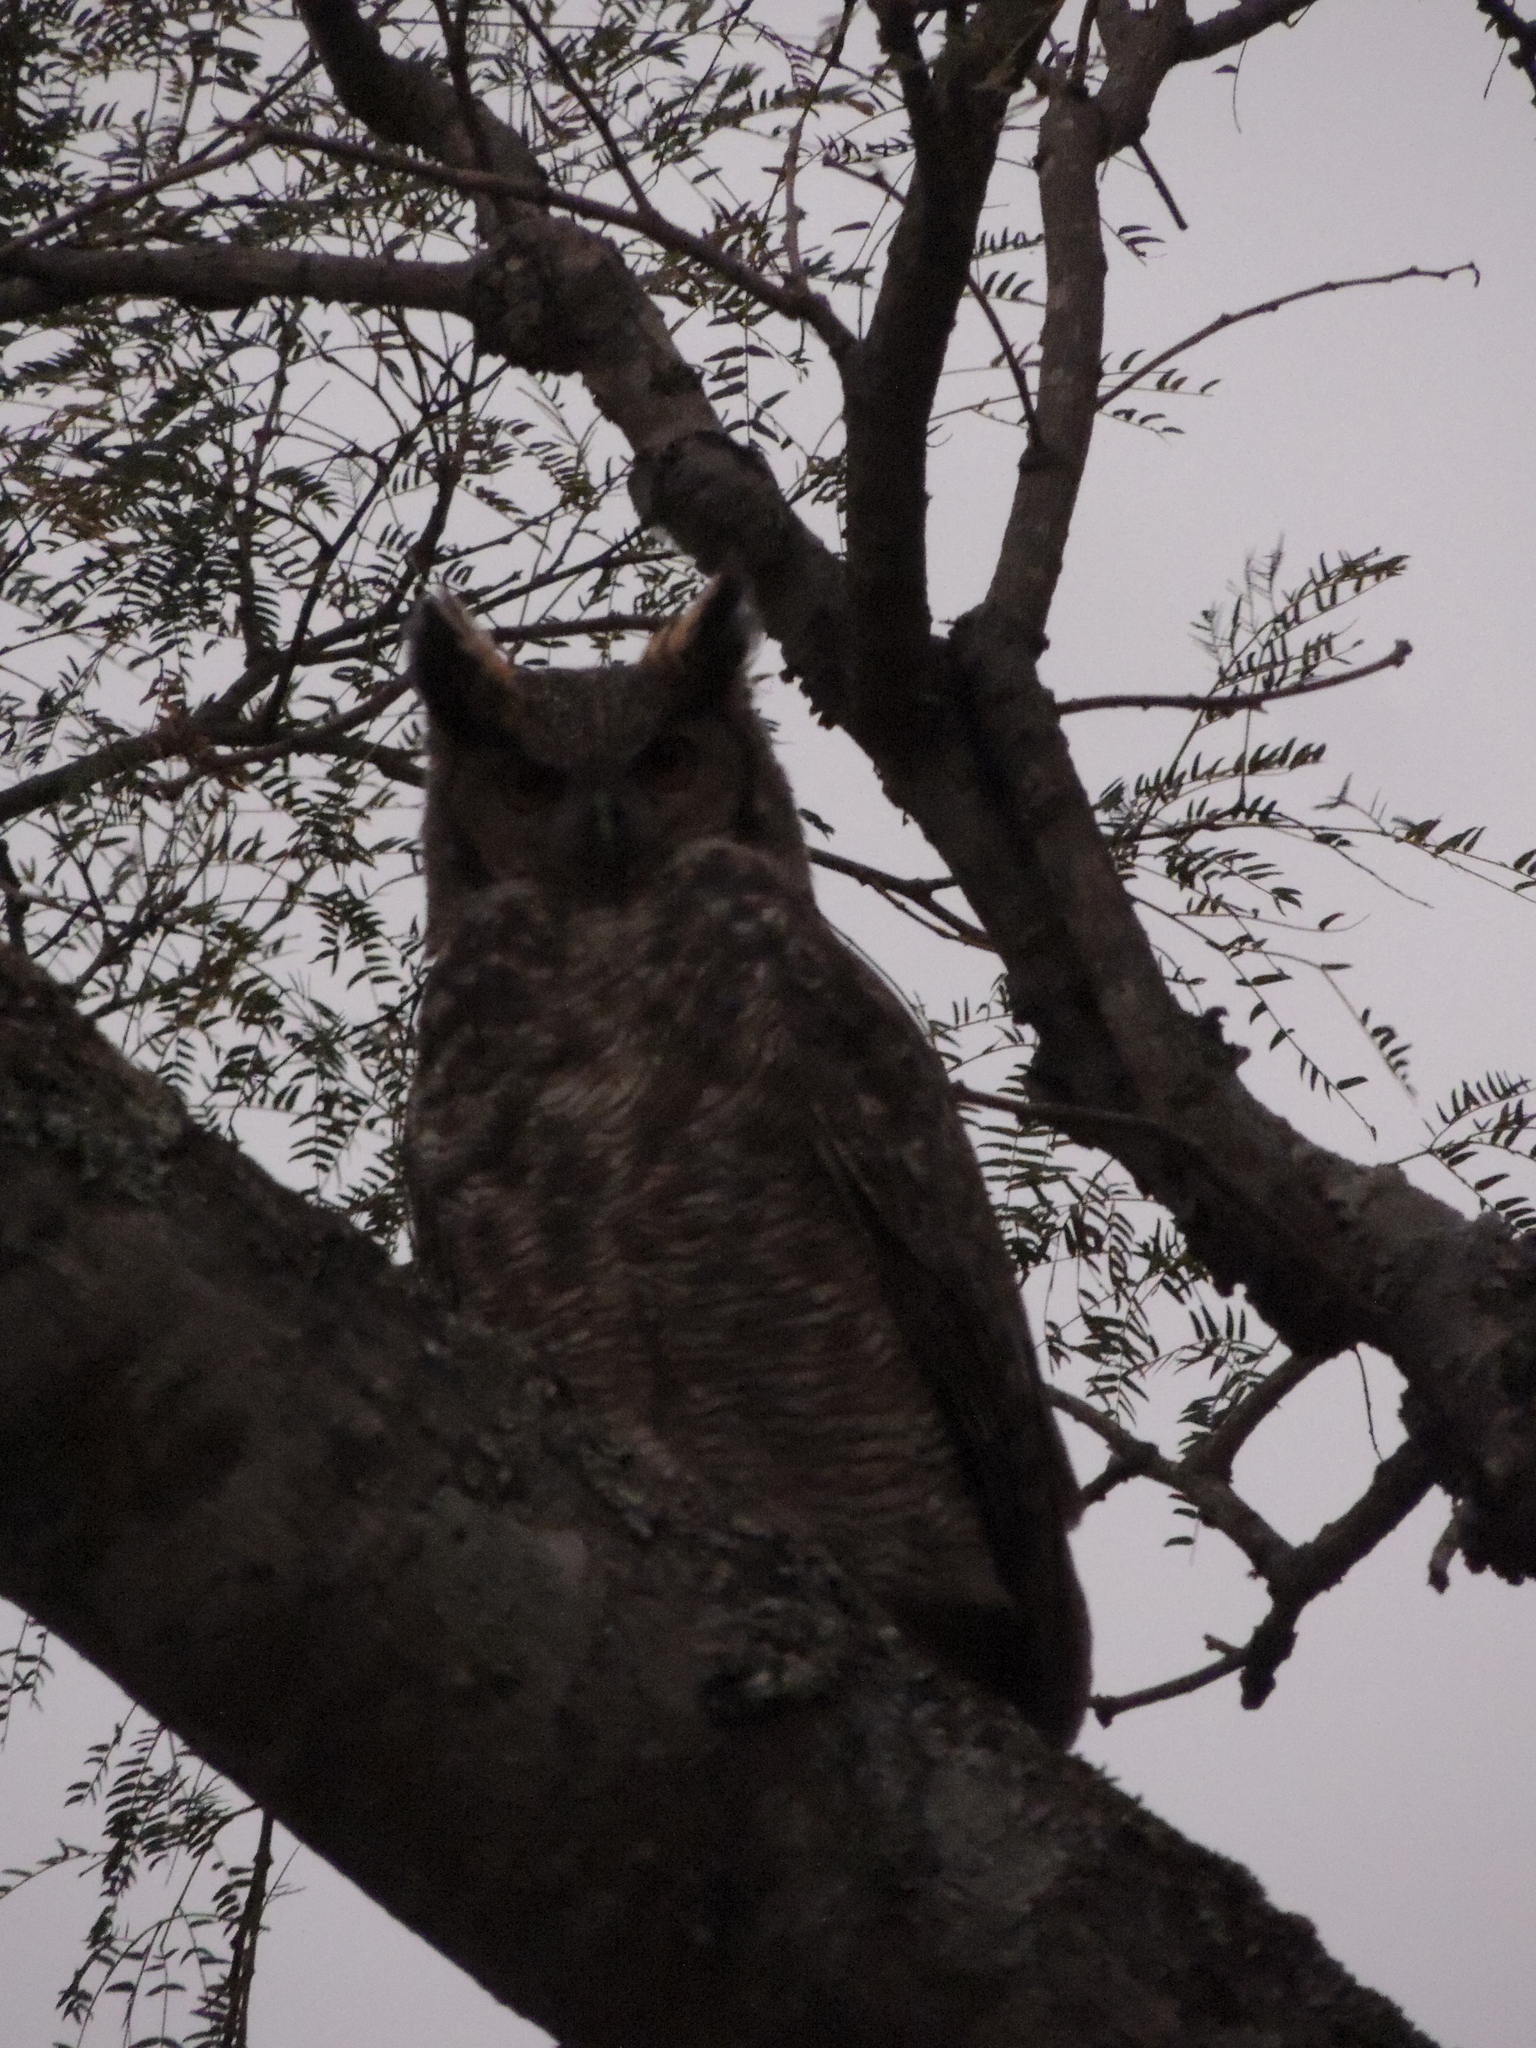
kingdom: Animalia
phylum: Chordata
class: Aves
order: Strigiformes
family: Strigidae
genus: Bubo
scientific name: Bubo virginianus
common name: Great horned owl
